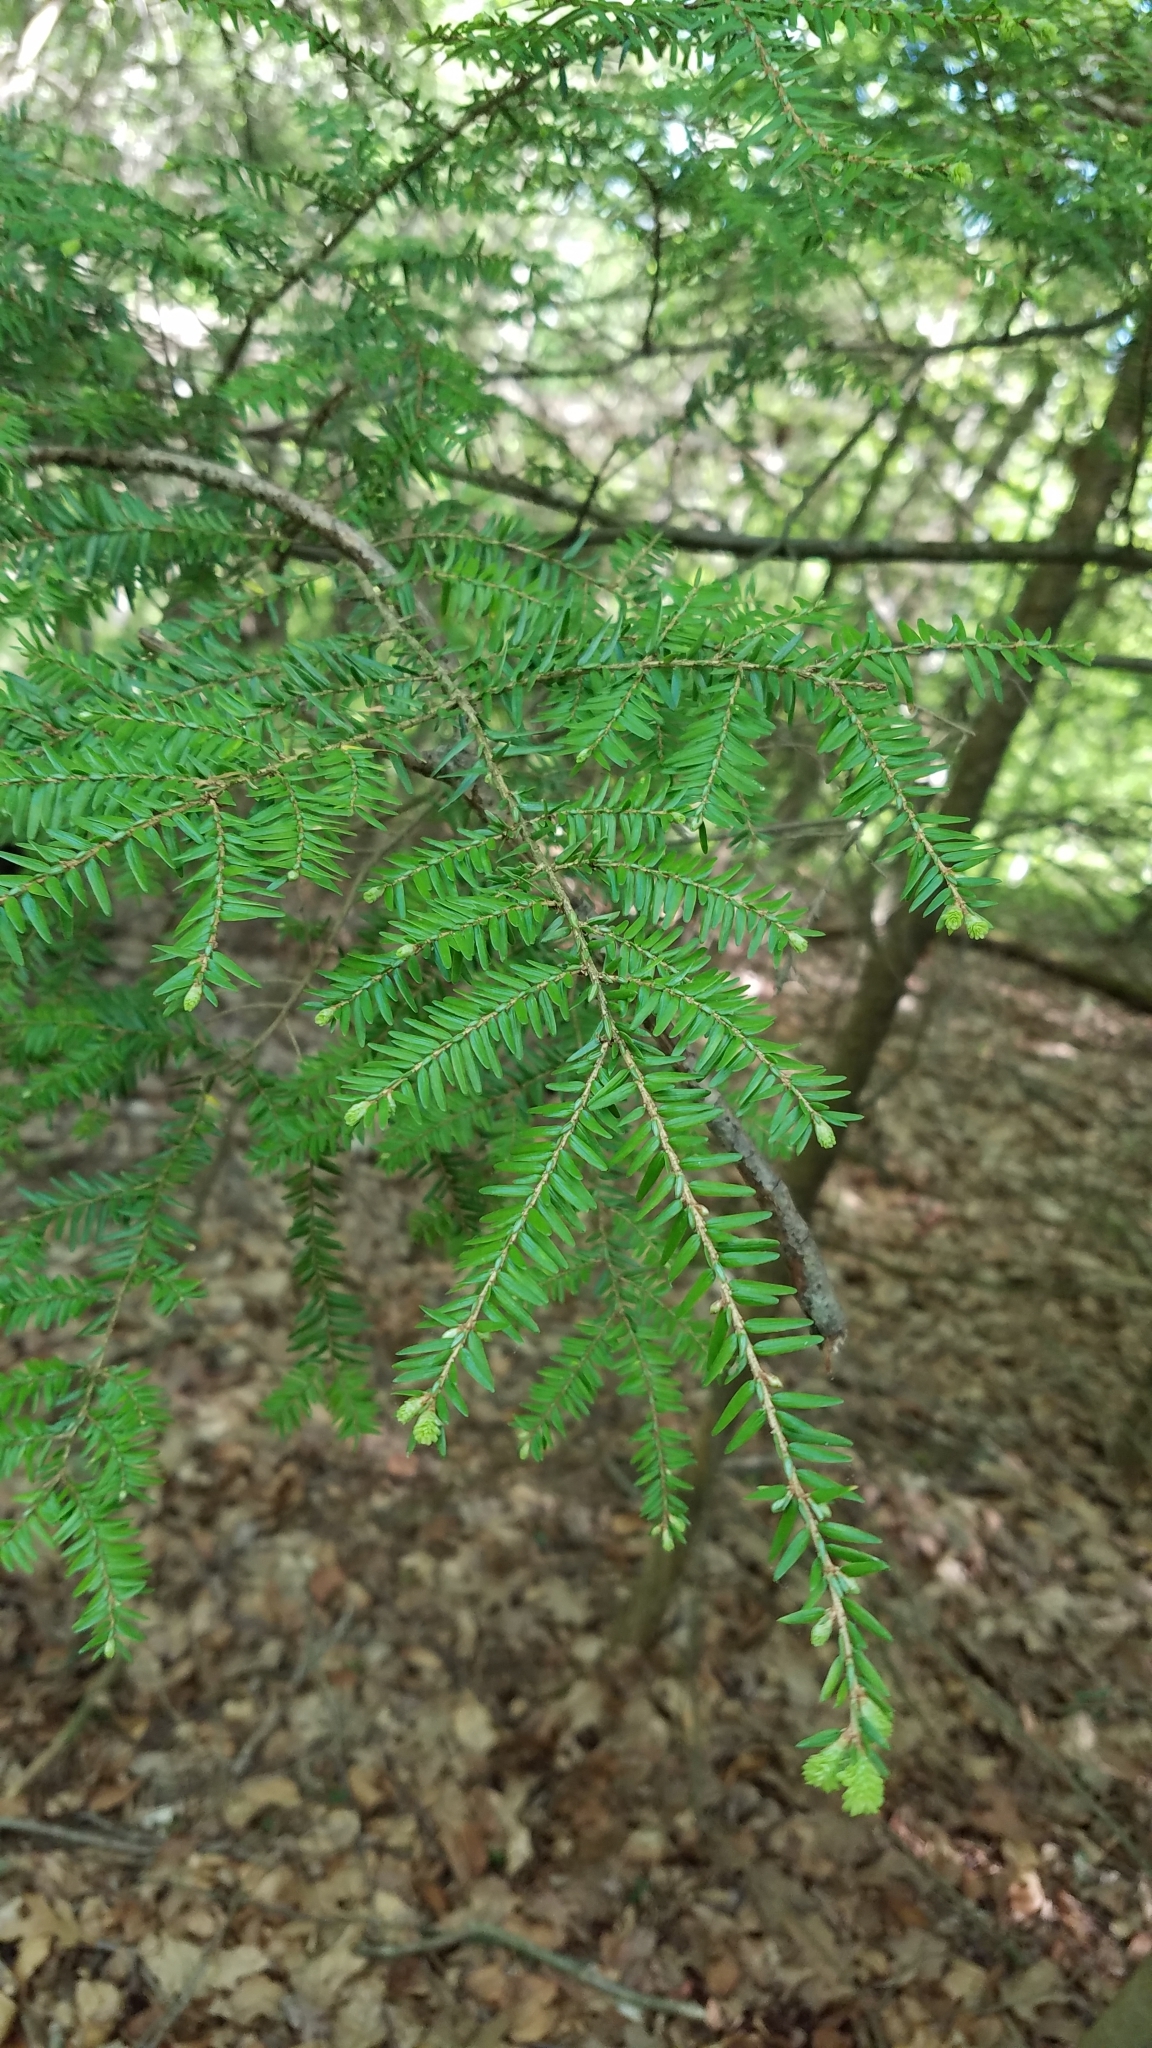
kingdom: Plantae
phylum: Tracheophyta
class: Pinopsida
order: Pinales
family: Pinaceae
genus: Tsuga
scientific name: Tsuga canadensis
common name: Eastern hemlock
